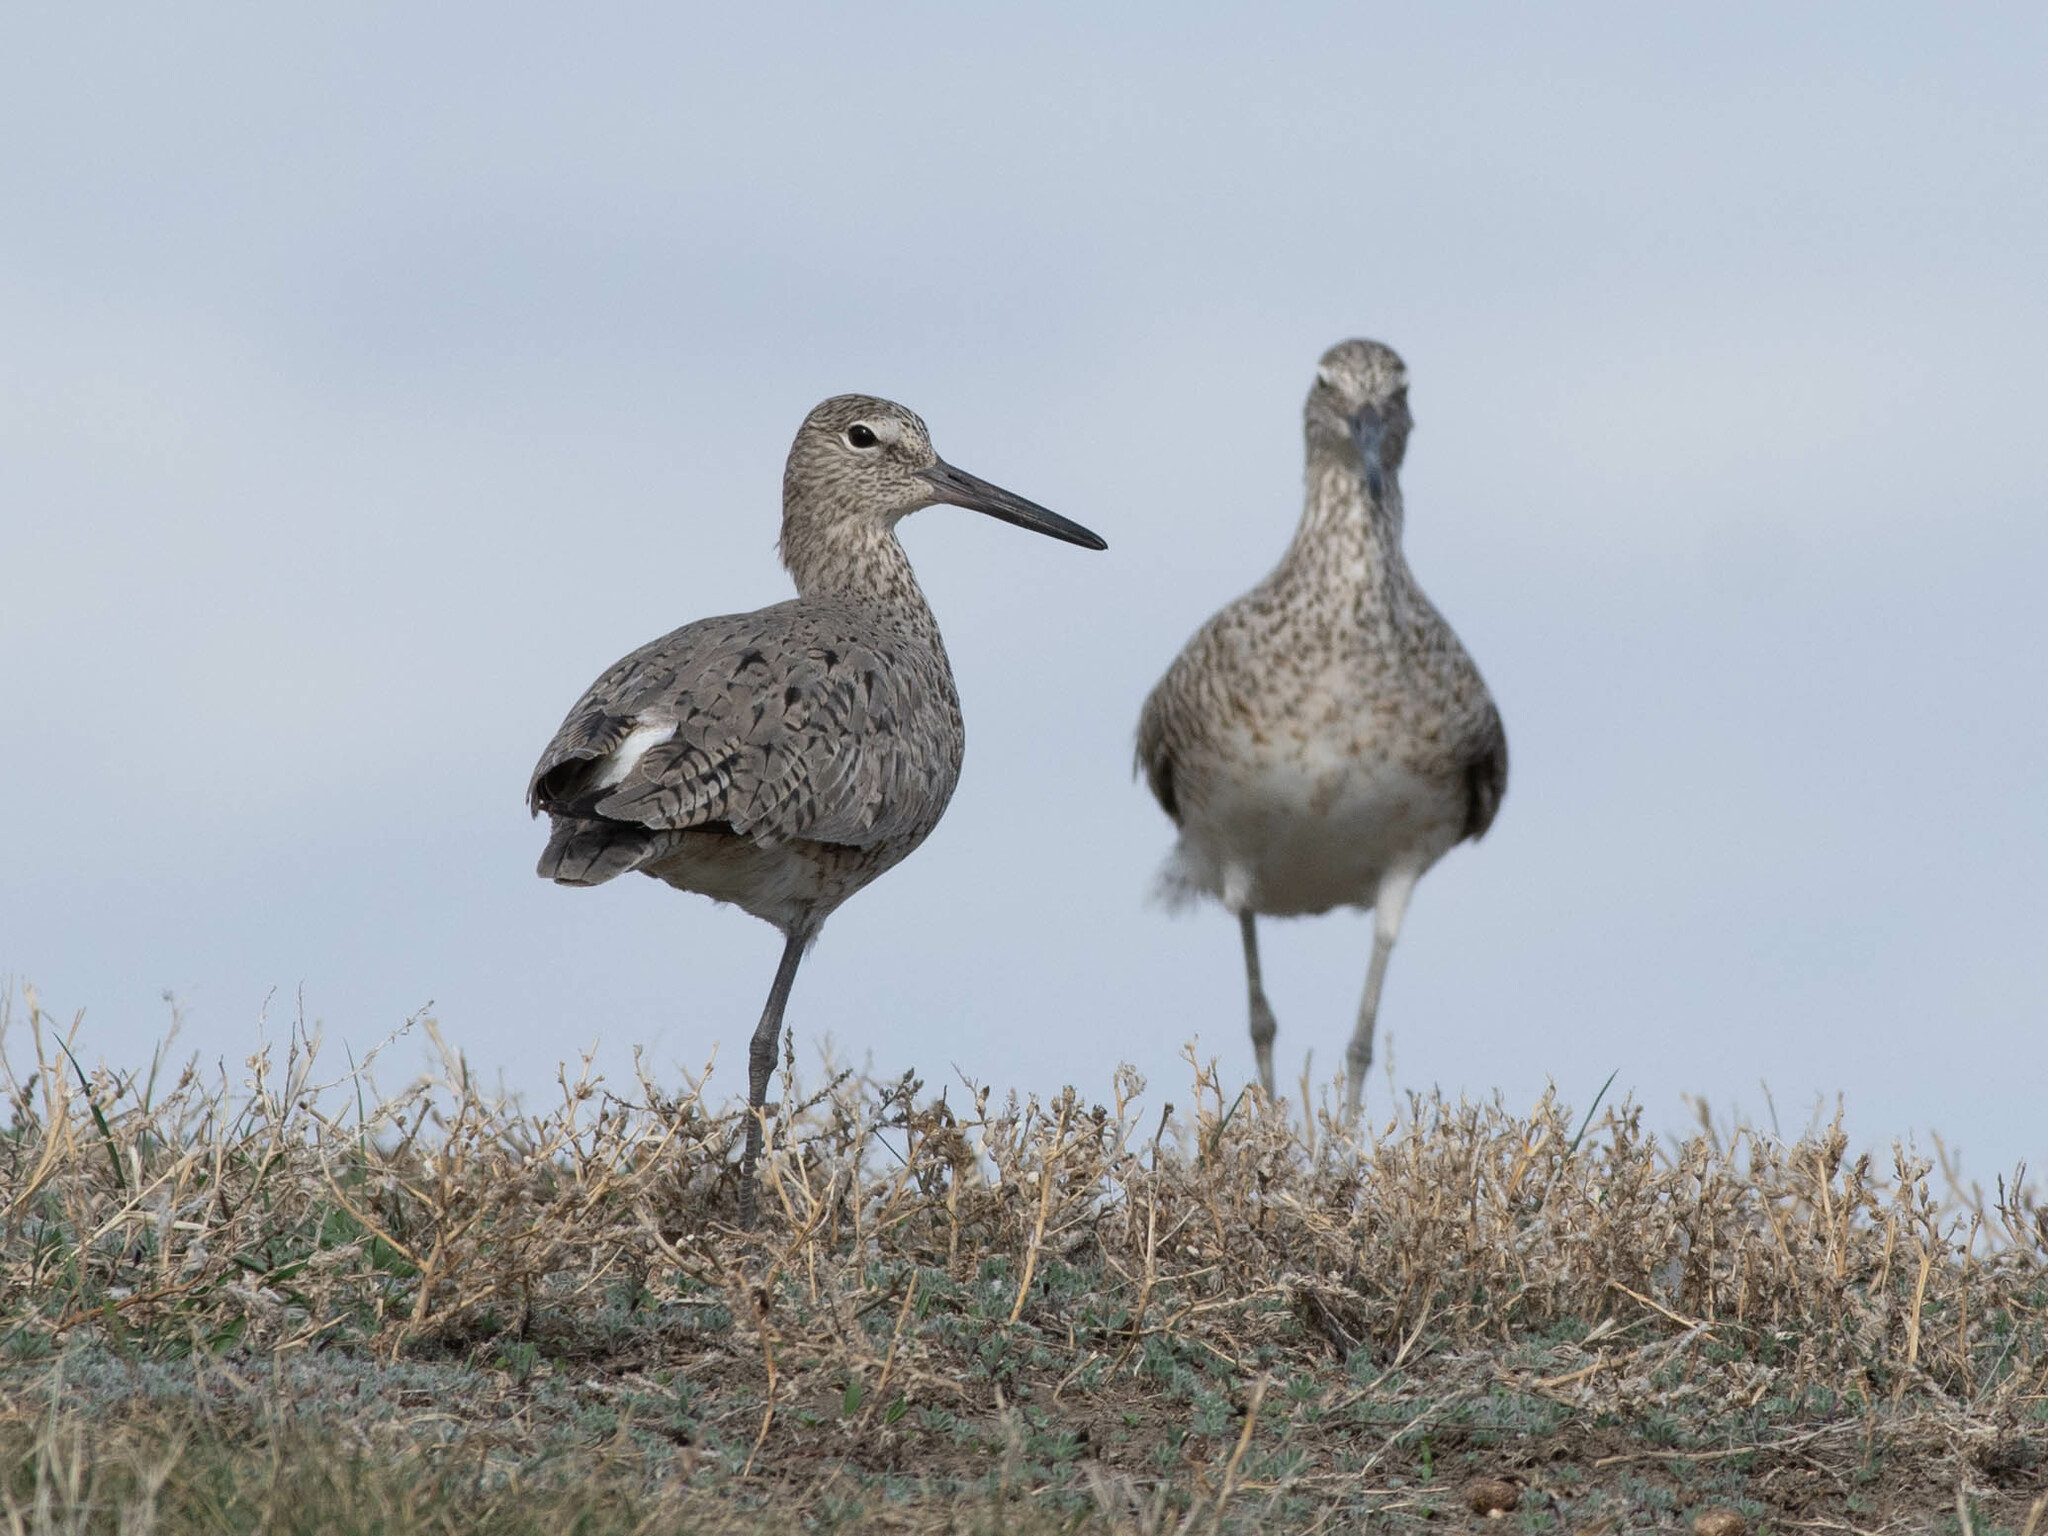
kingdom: Animalia
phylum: Chordata
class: Aves
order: Charadriiformes
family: Scolopacidae
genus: Tringa
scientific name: Tringa semipalmata
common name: Willet
